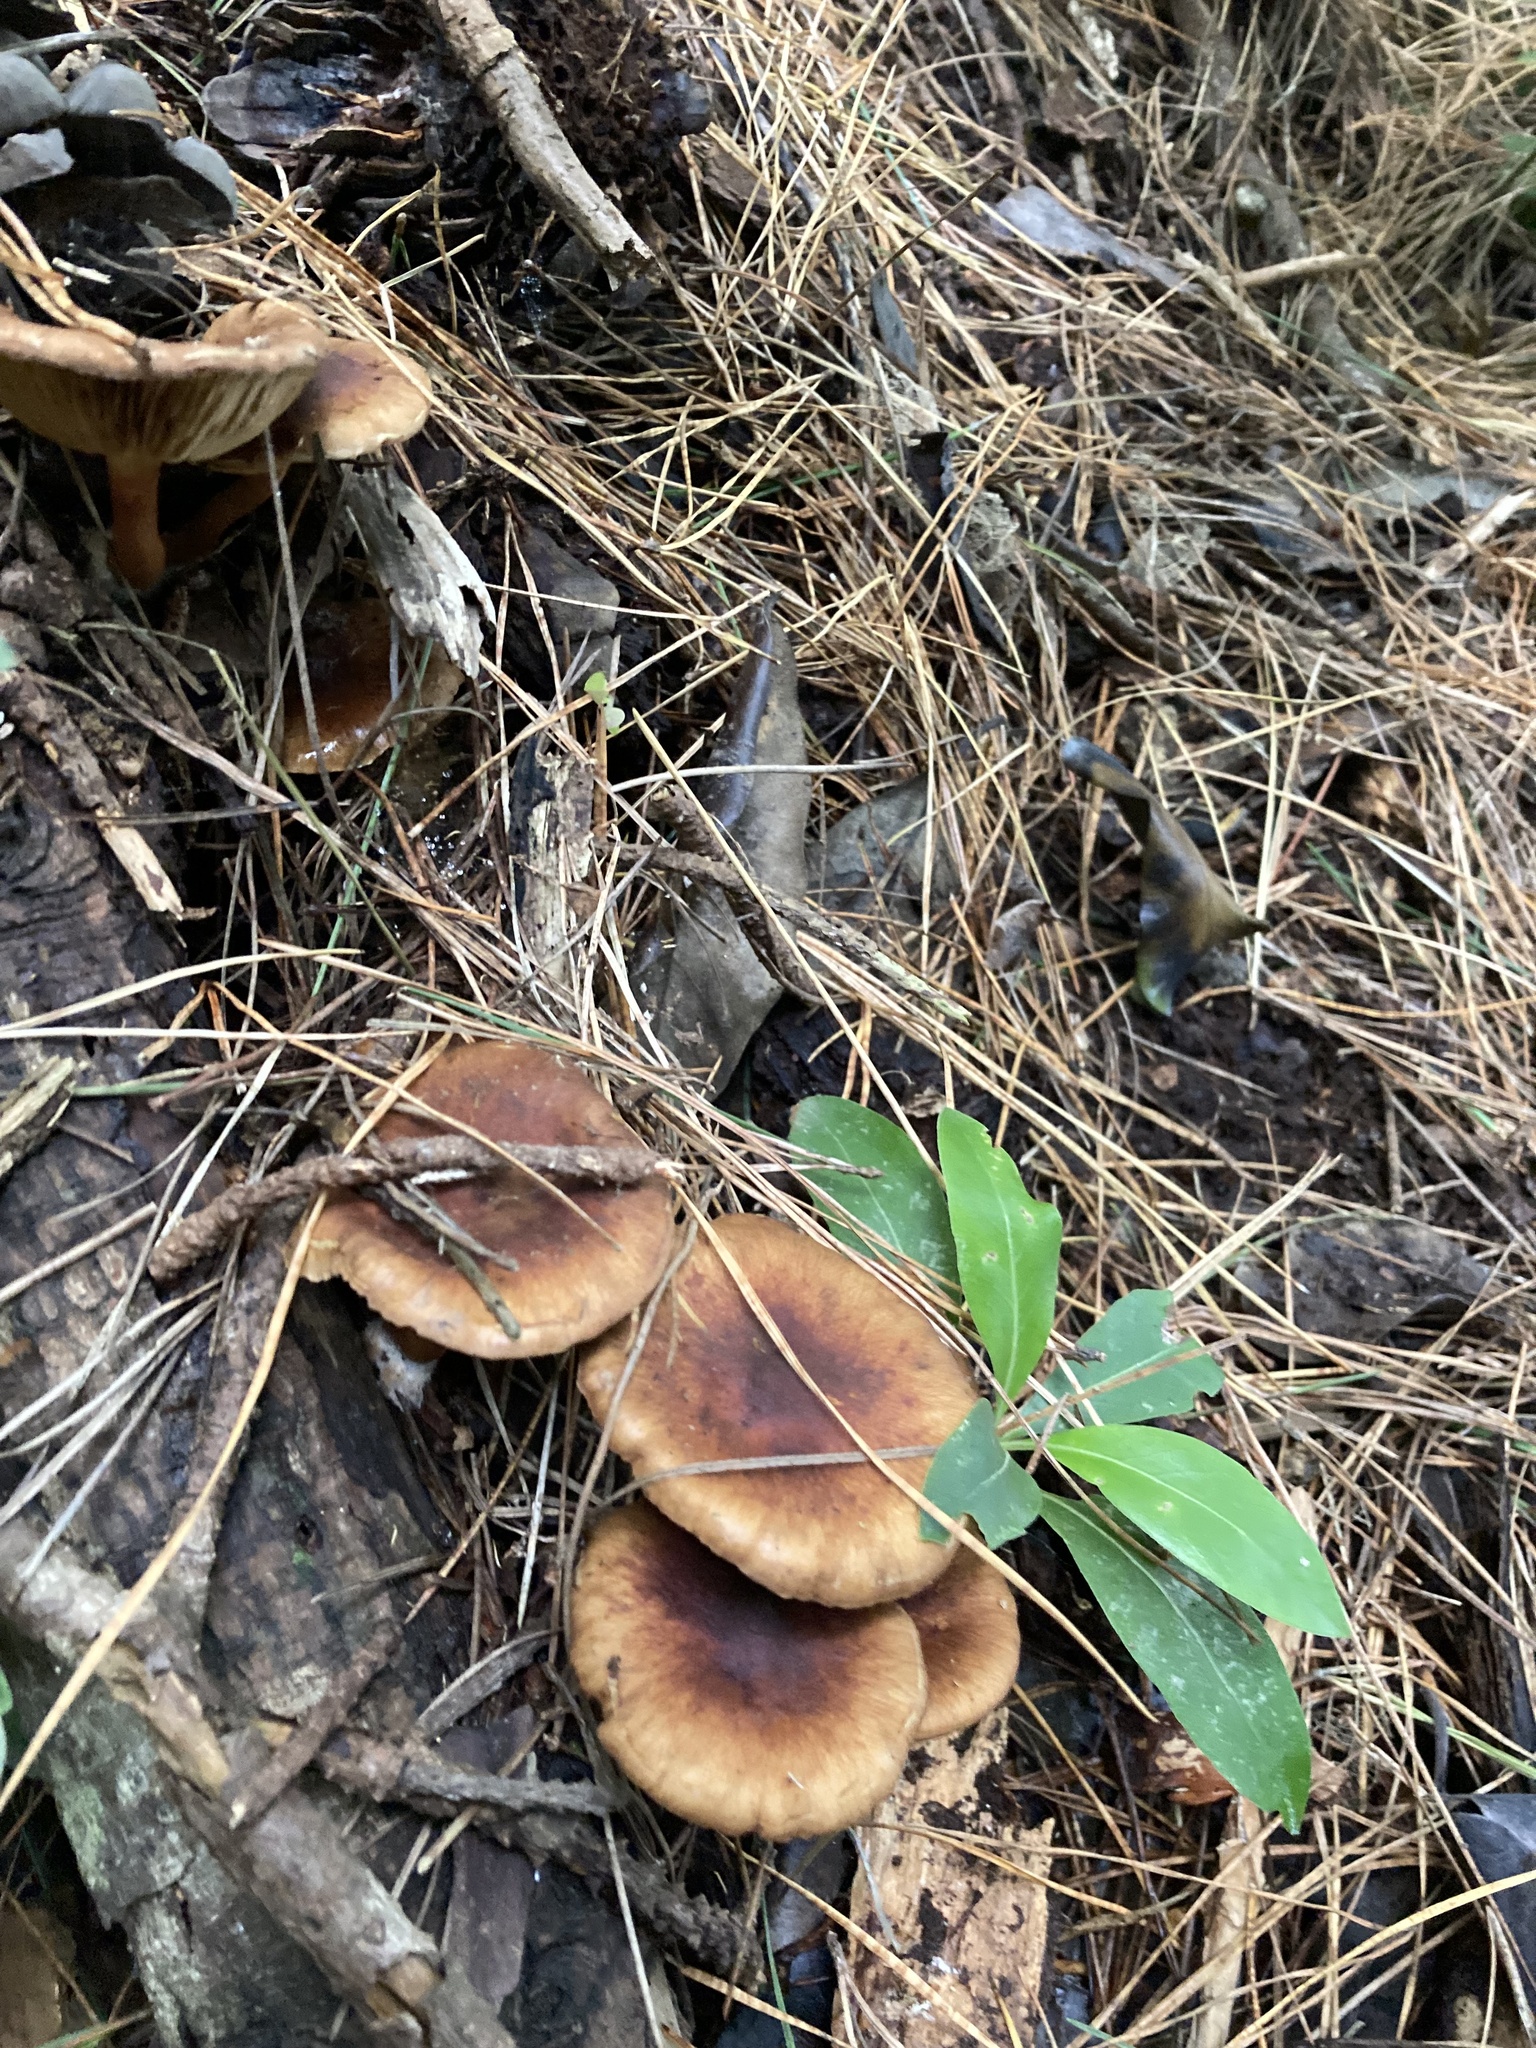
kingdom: Fungi
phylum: Basidiomycota
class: Agaricomycetes
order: Agaricales
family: Strophariaceae
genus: Pholiota
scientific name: Pholiota multicingulata
